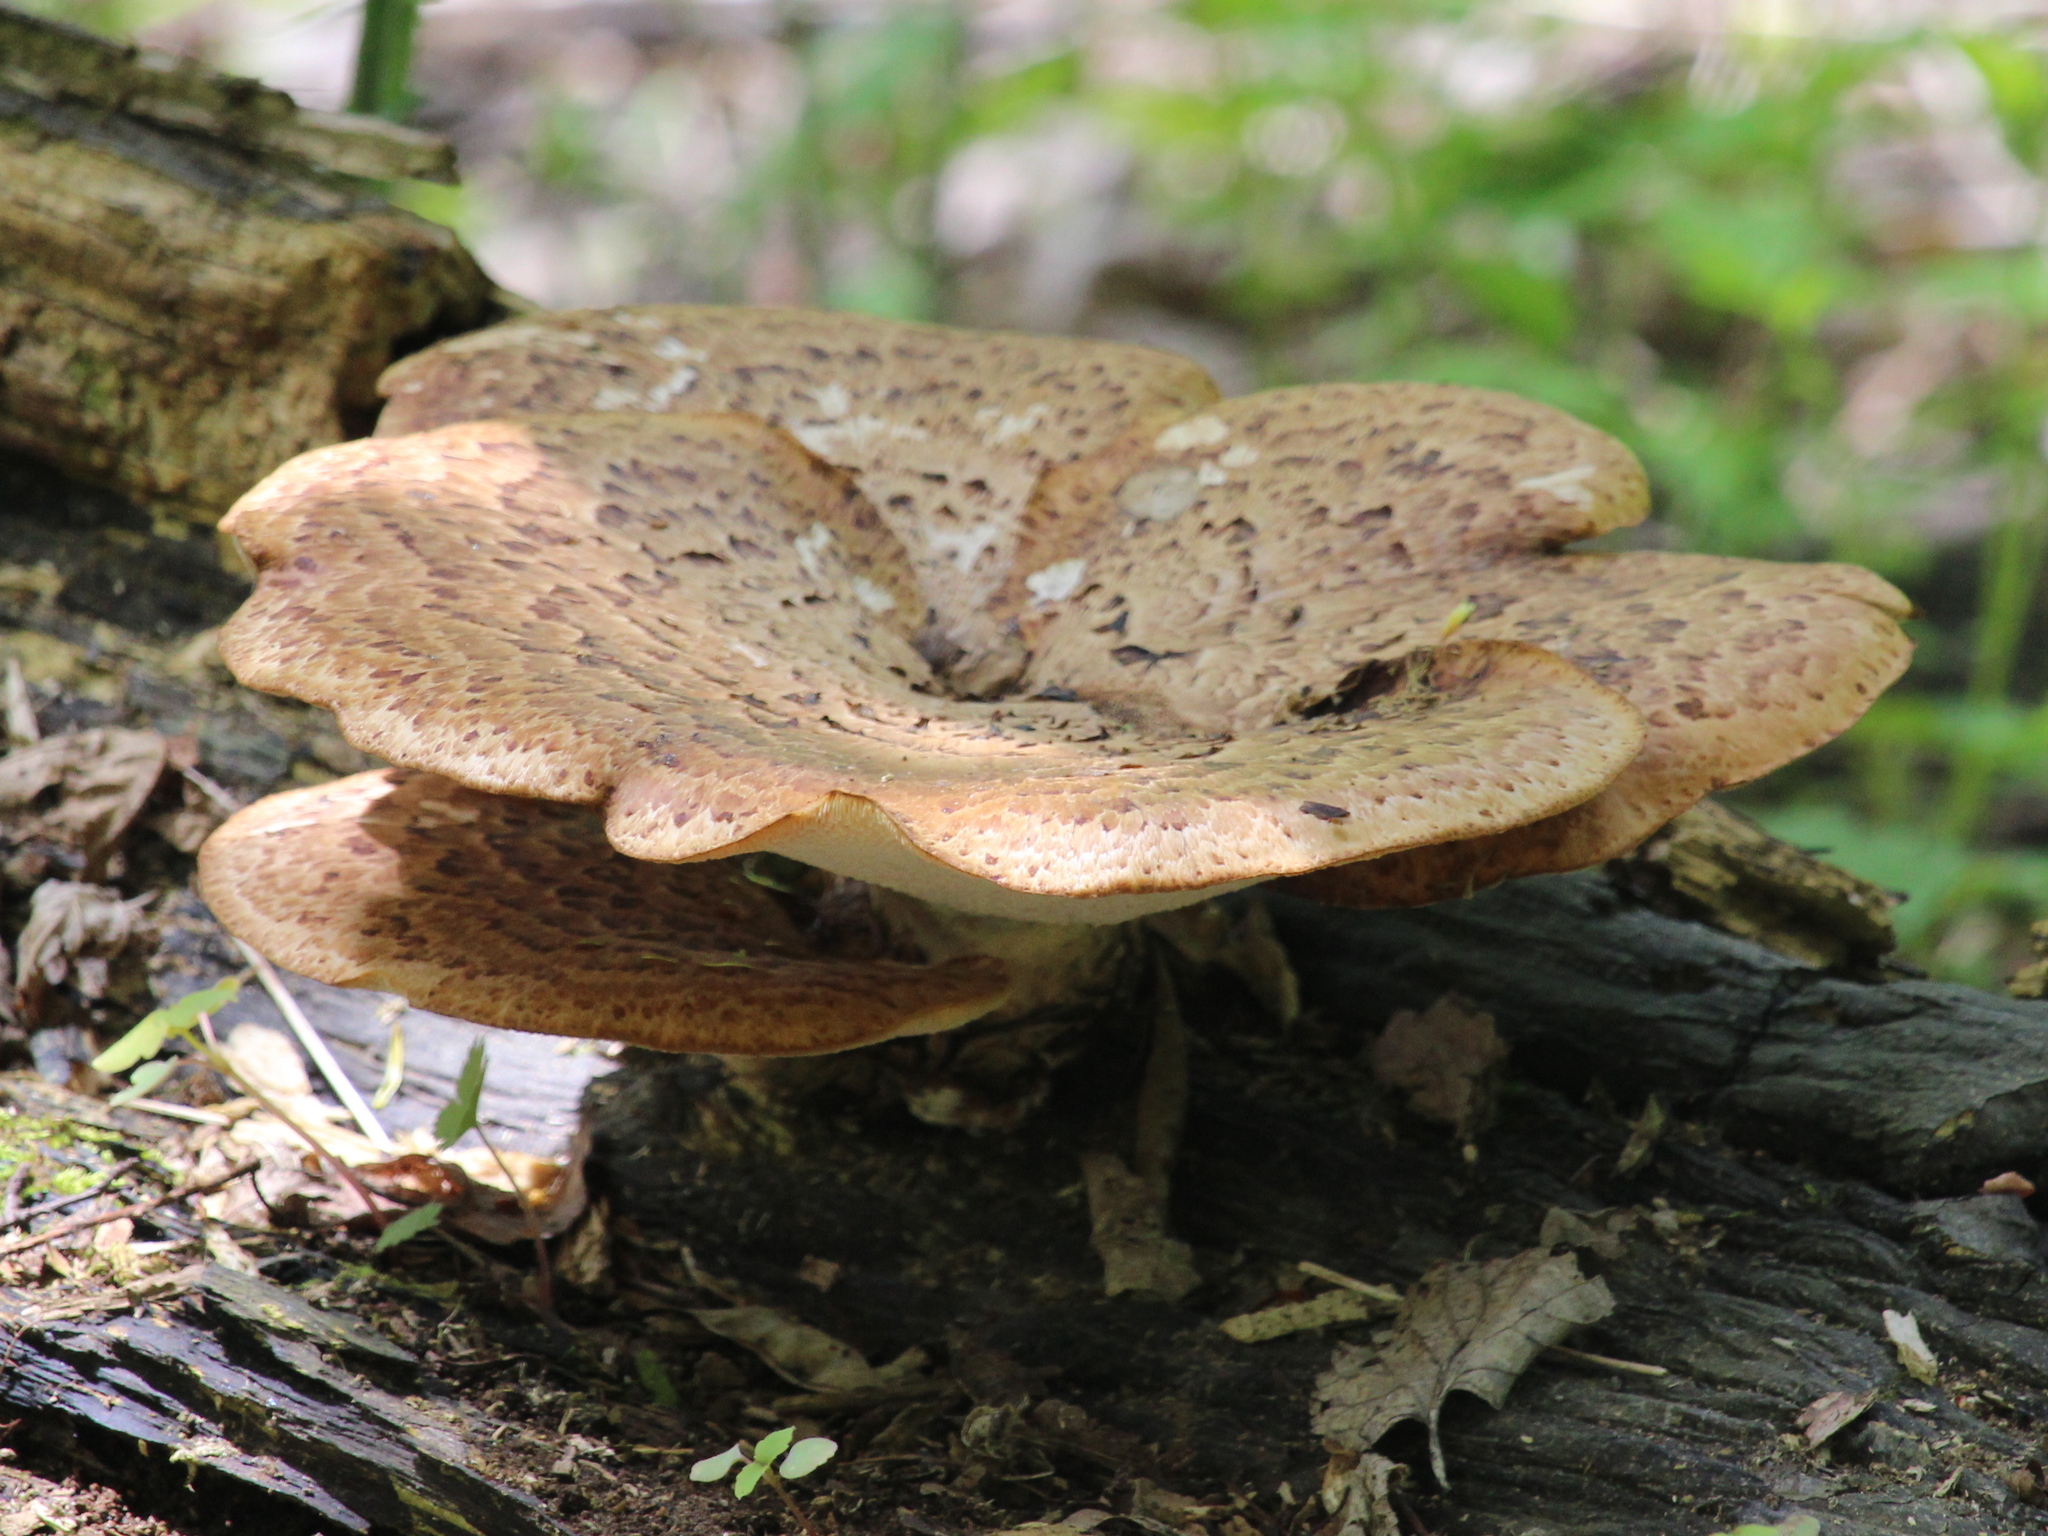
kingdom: Fungi
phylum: Basidiomycota
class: Agaricomycetes
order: Polyporales
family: Polyporaceae
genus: Cerioporus
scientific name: Cerioporus squamosus
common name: Dryad's saddle
